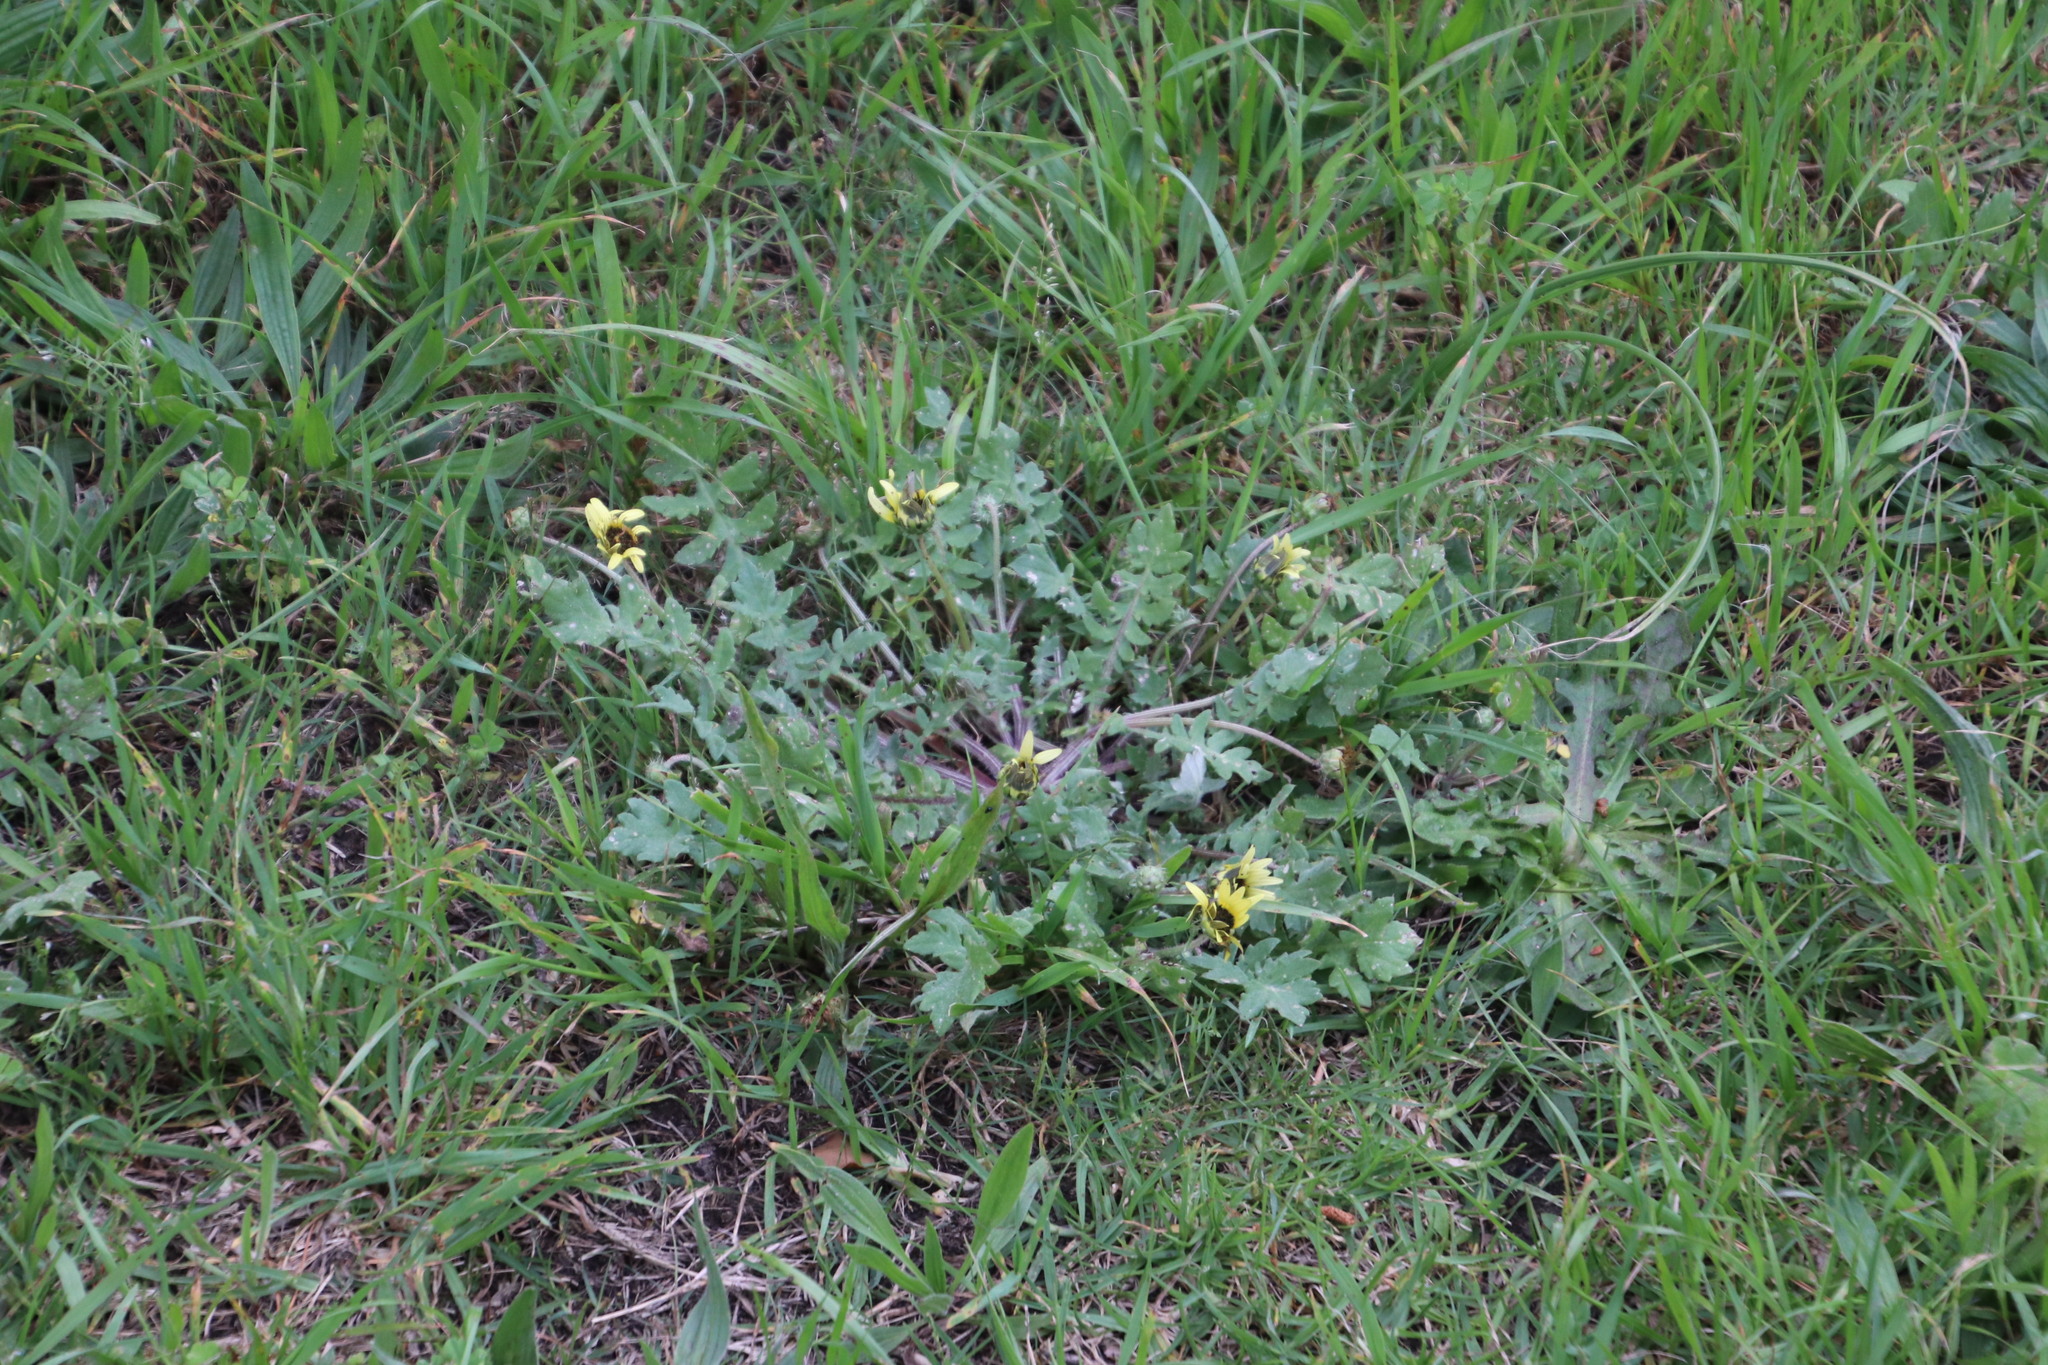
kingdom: Plantae
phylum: Tracheophyta
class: Magnoliopsida
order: Asterales
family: Asteraceae
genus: Arctotheca
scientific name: Arctotheca calendula
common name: Capeweed
